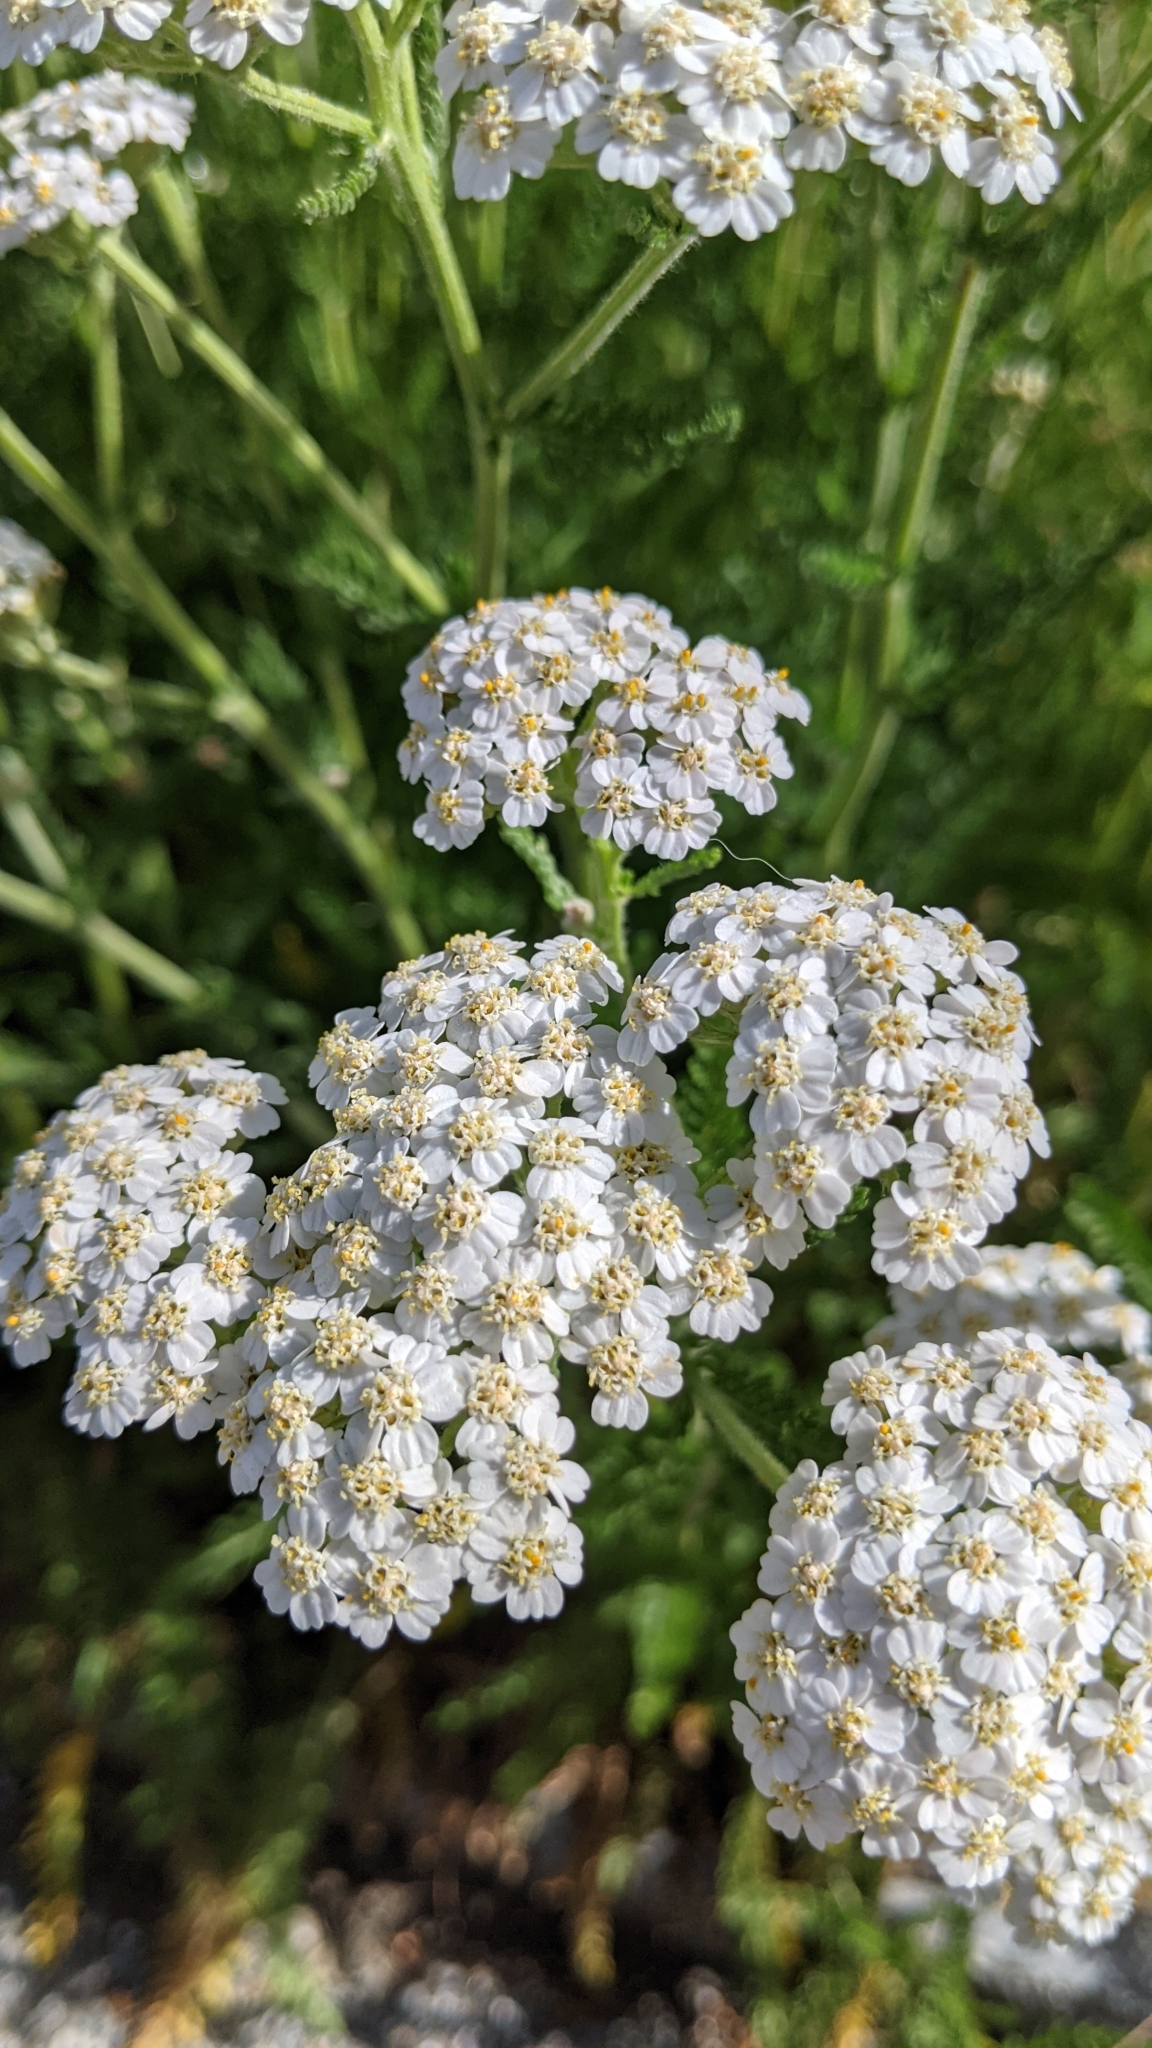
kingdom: Plantae
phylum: Tracheophyta
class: Magnoliopsida
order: Asterales
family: Asteraceae
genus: Achillea
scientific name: Achillea millefolium
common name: Yarrow
